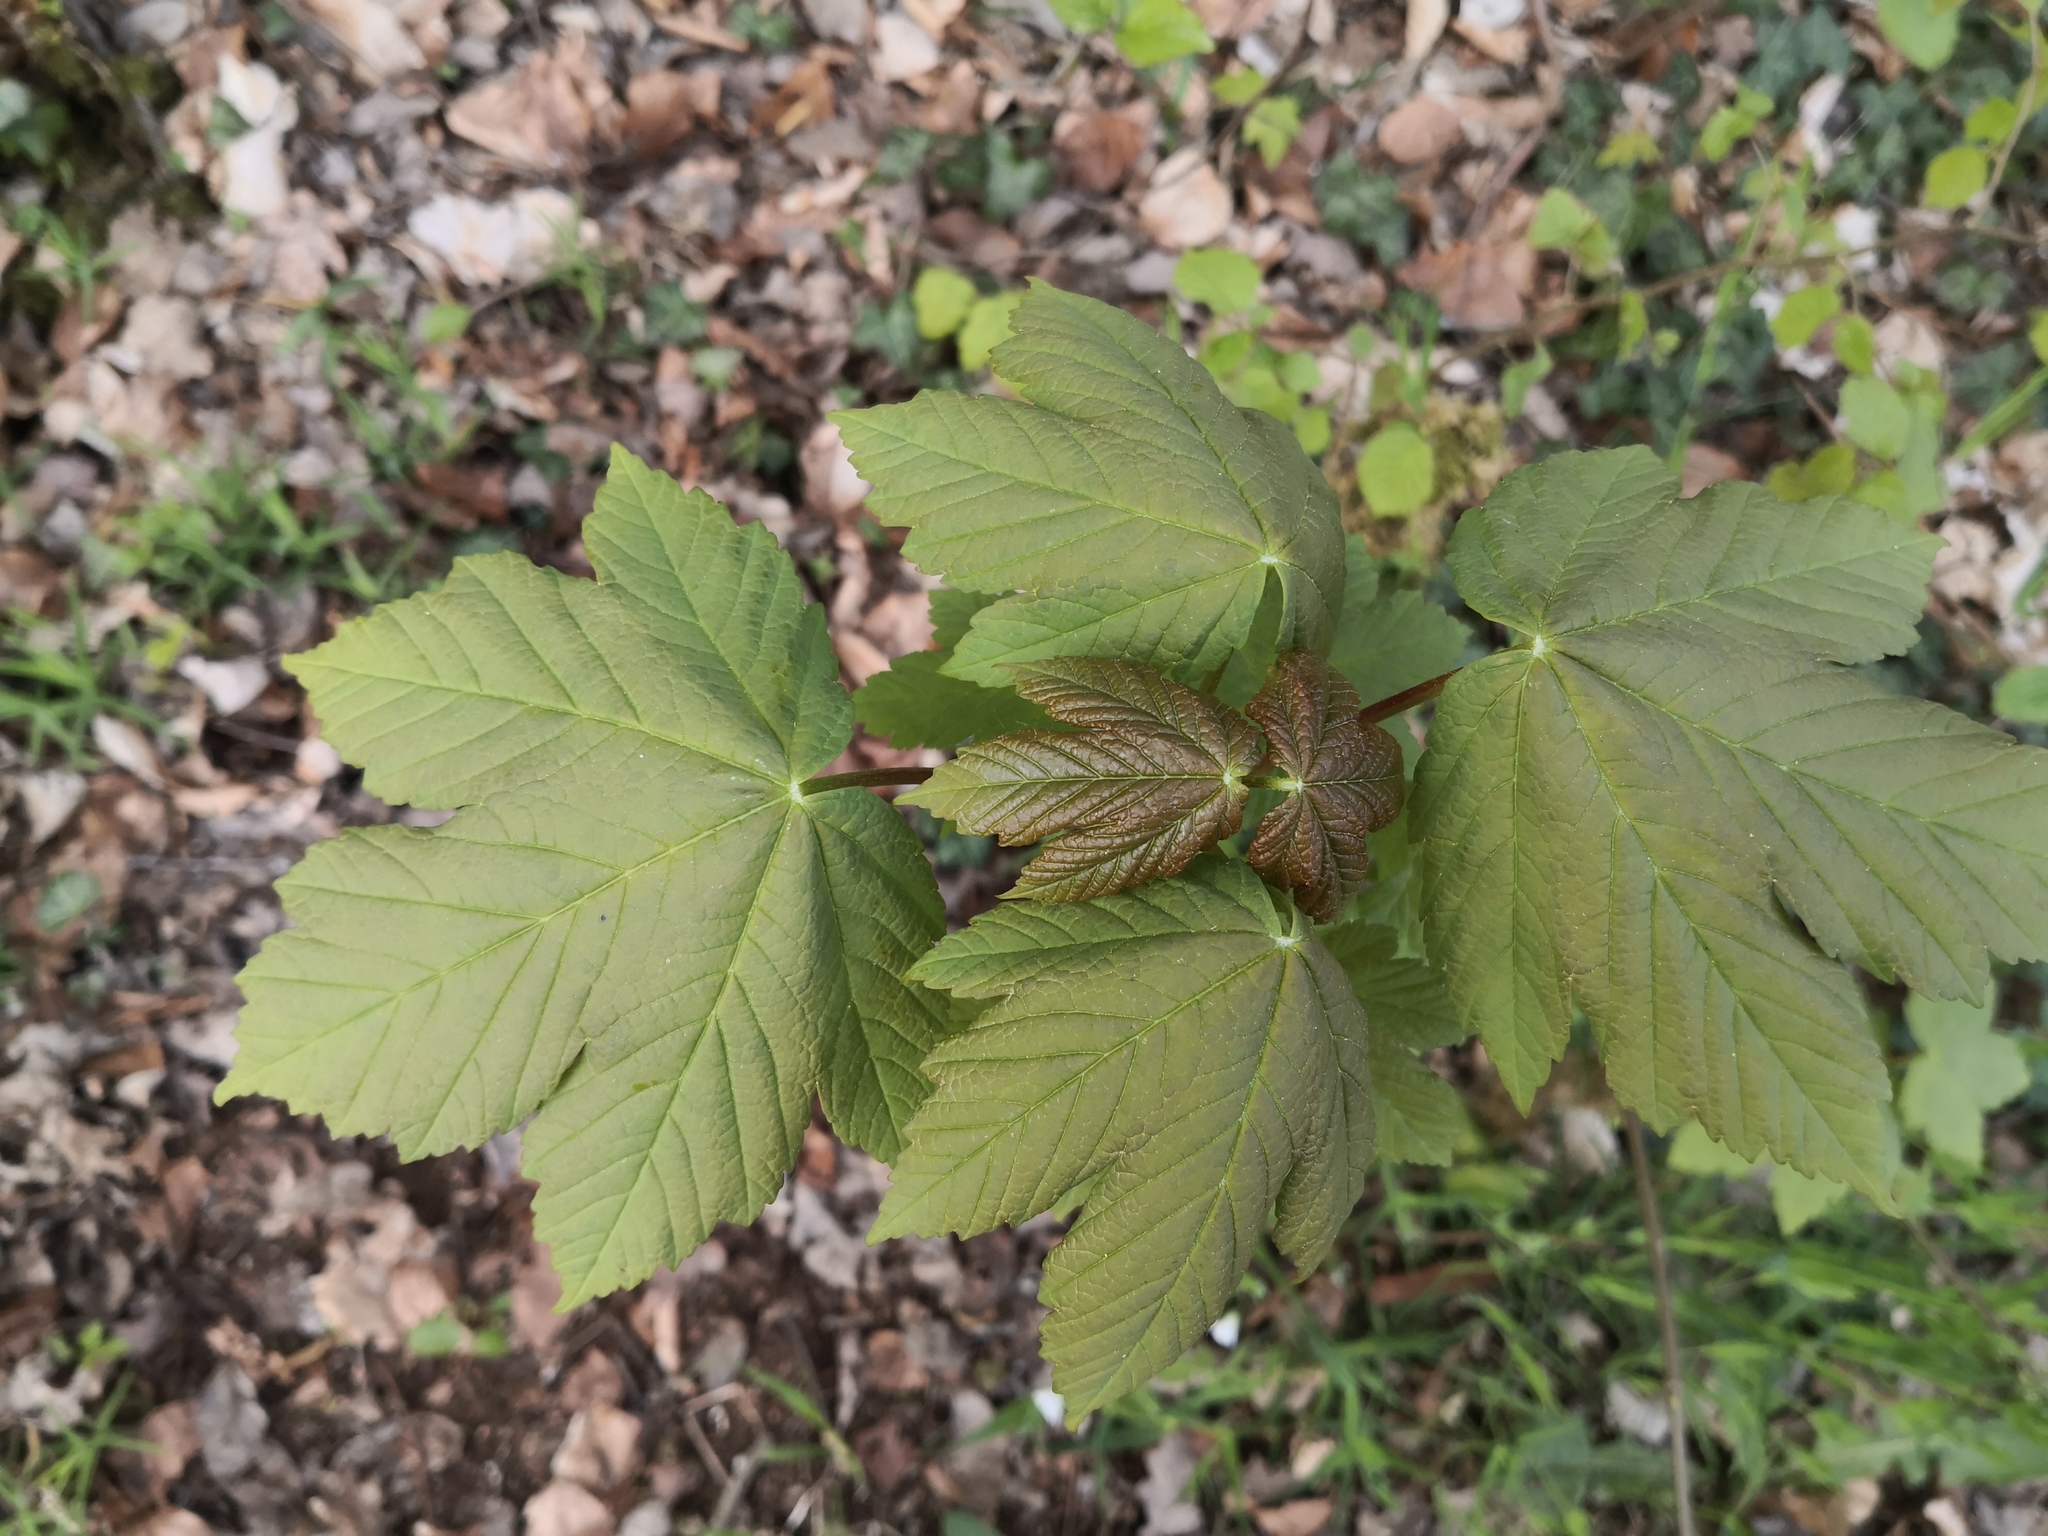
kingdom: Plantae
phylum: Tracheophyta
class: Magnoliopsida
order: Sapindales
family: Sapindaceae
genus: Acer
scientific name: Acer pseudoplatanus
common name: Sycamore
